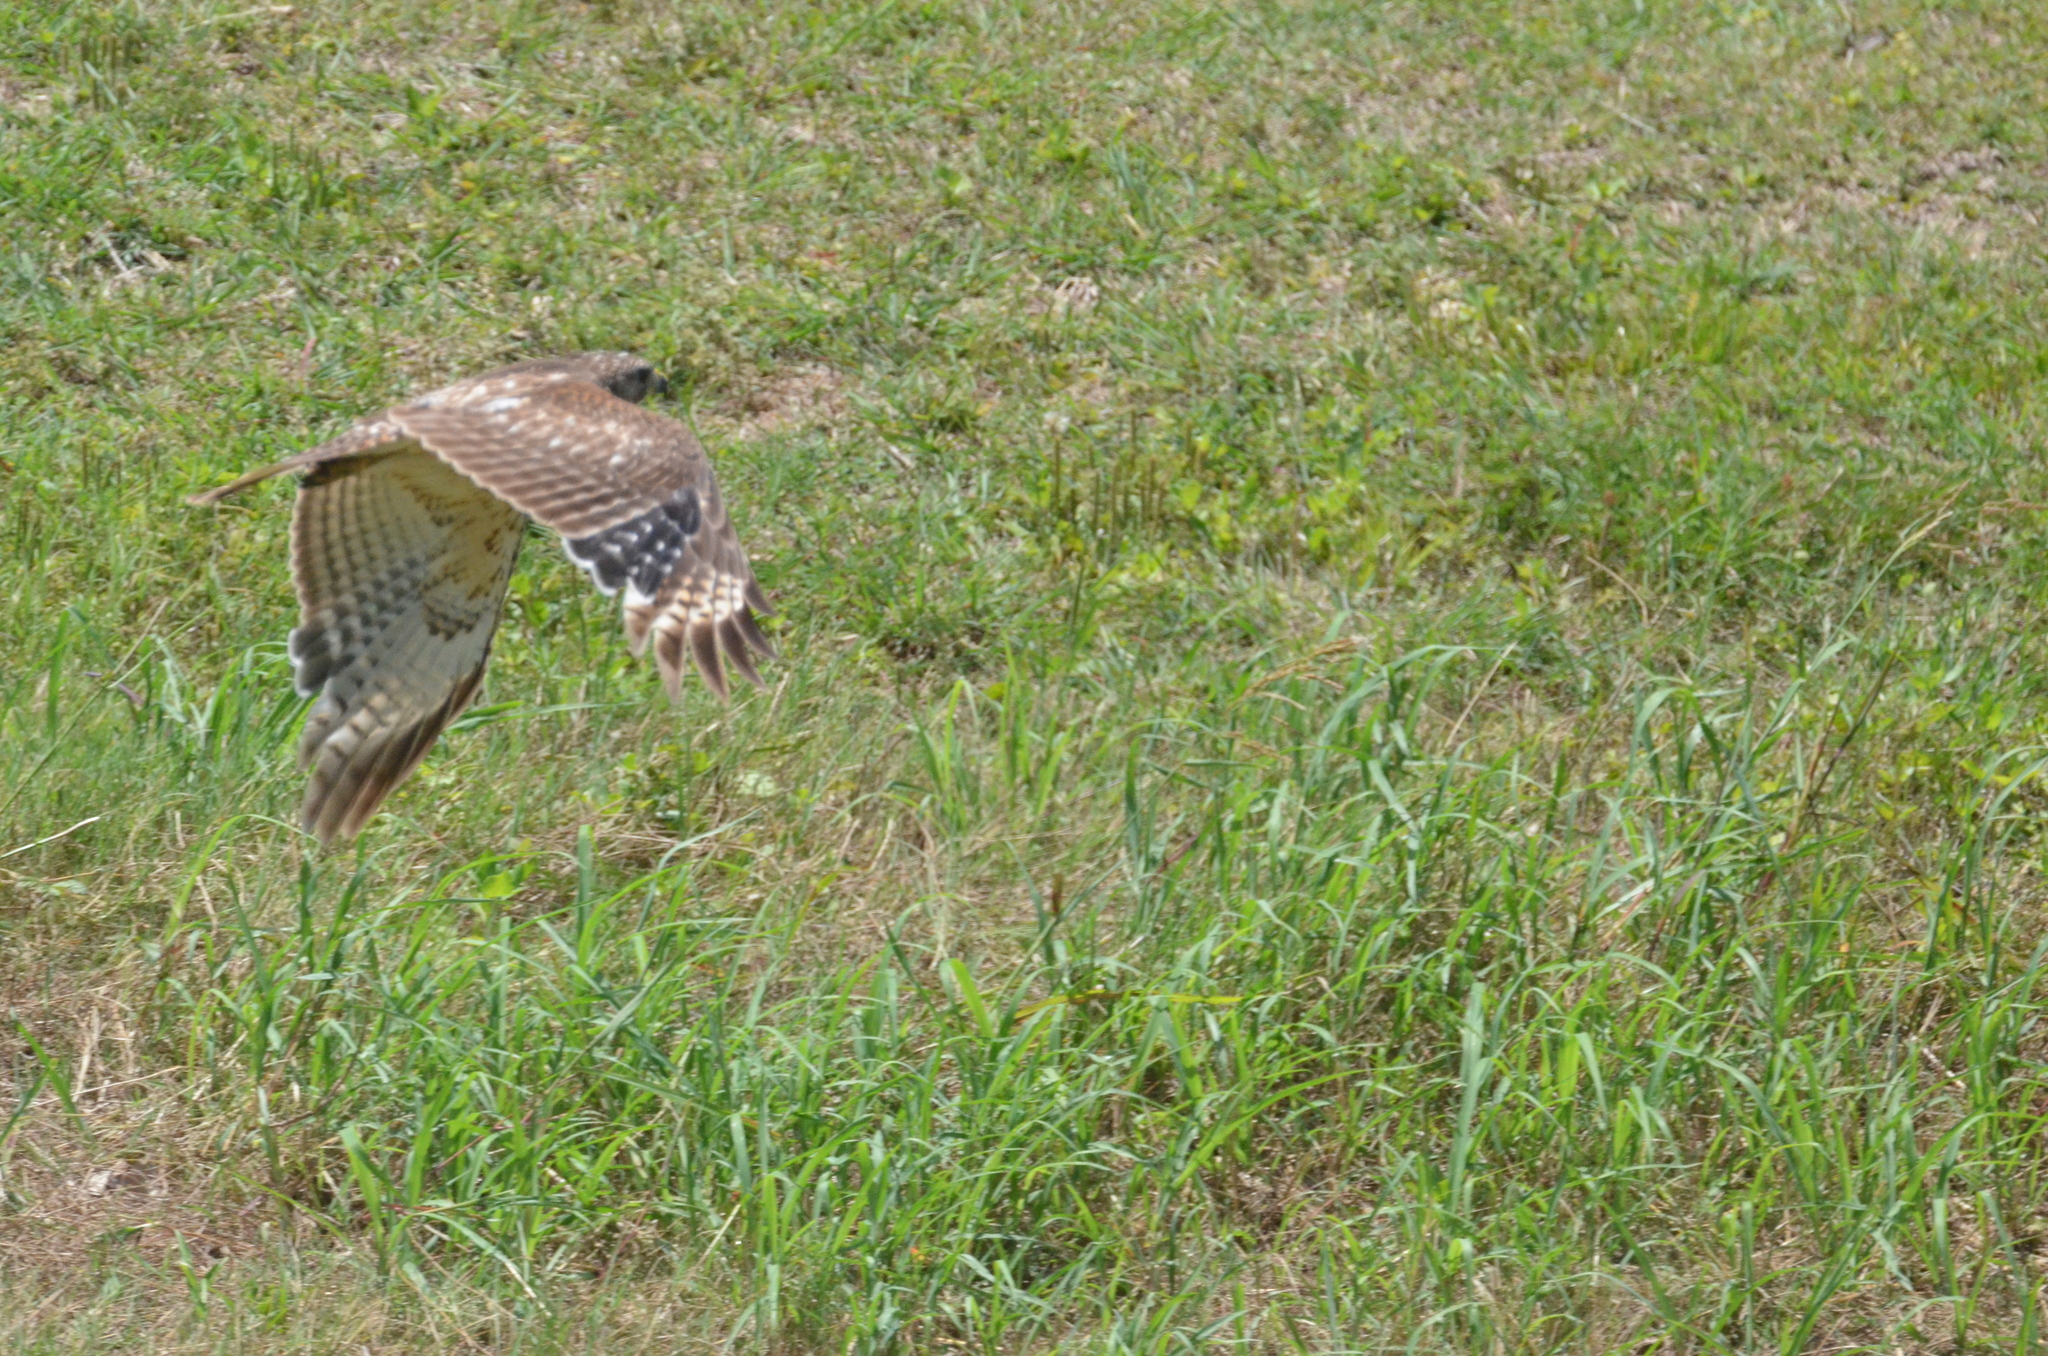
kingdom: Animalia
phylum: Chordata
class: Aves
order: Accipitriformes
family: Accipitridae
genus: Buteo
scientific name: Buteo lineatus
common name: Red-shouldered hawk
